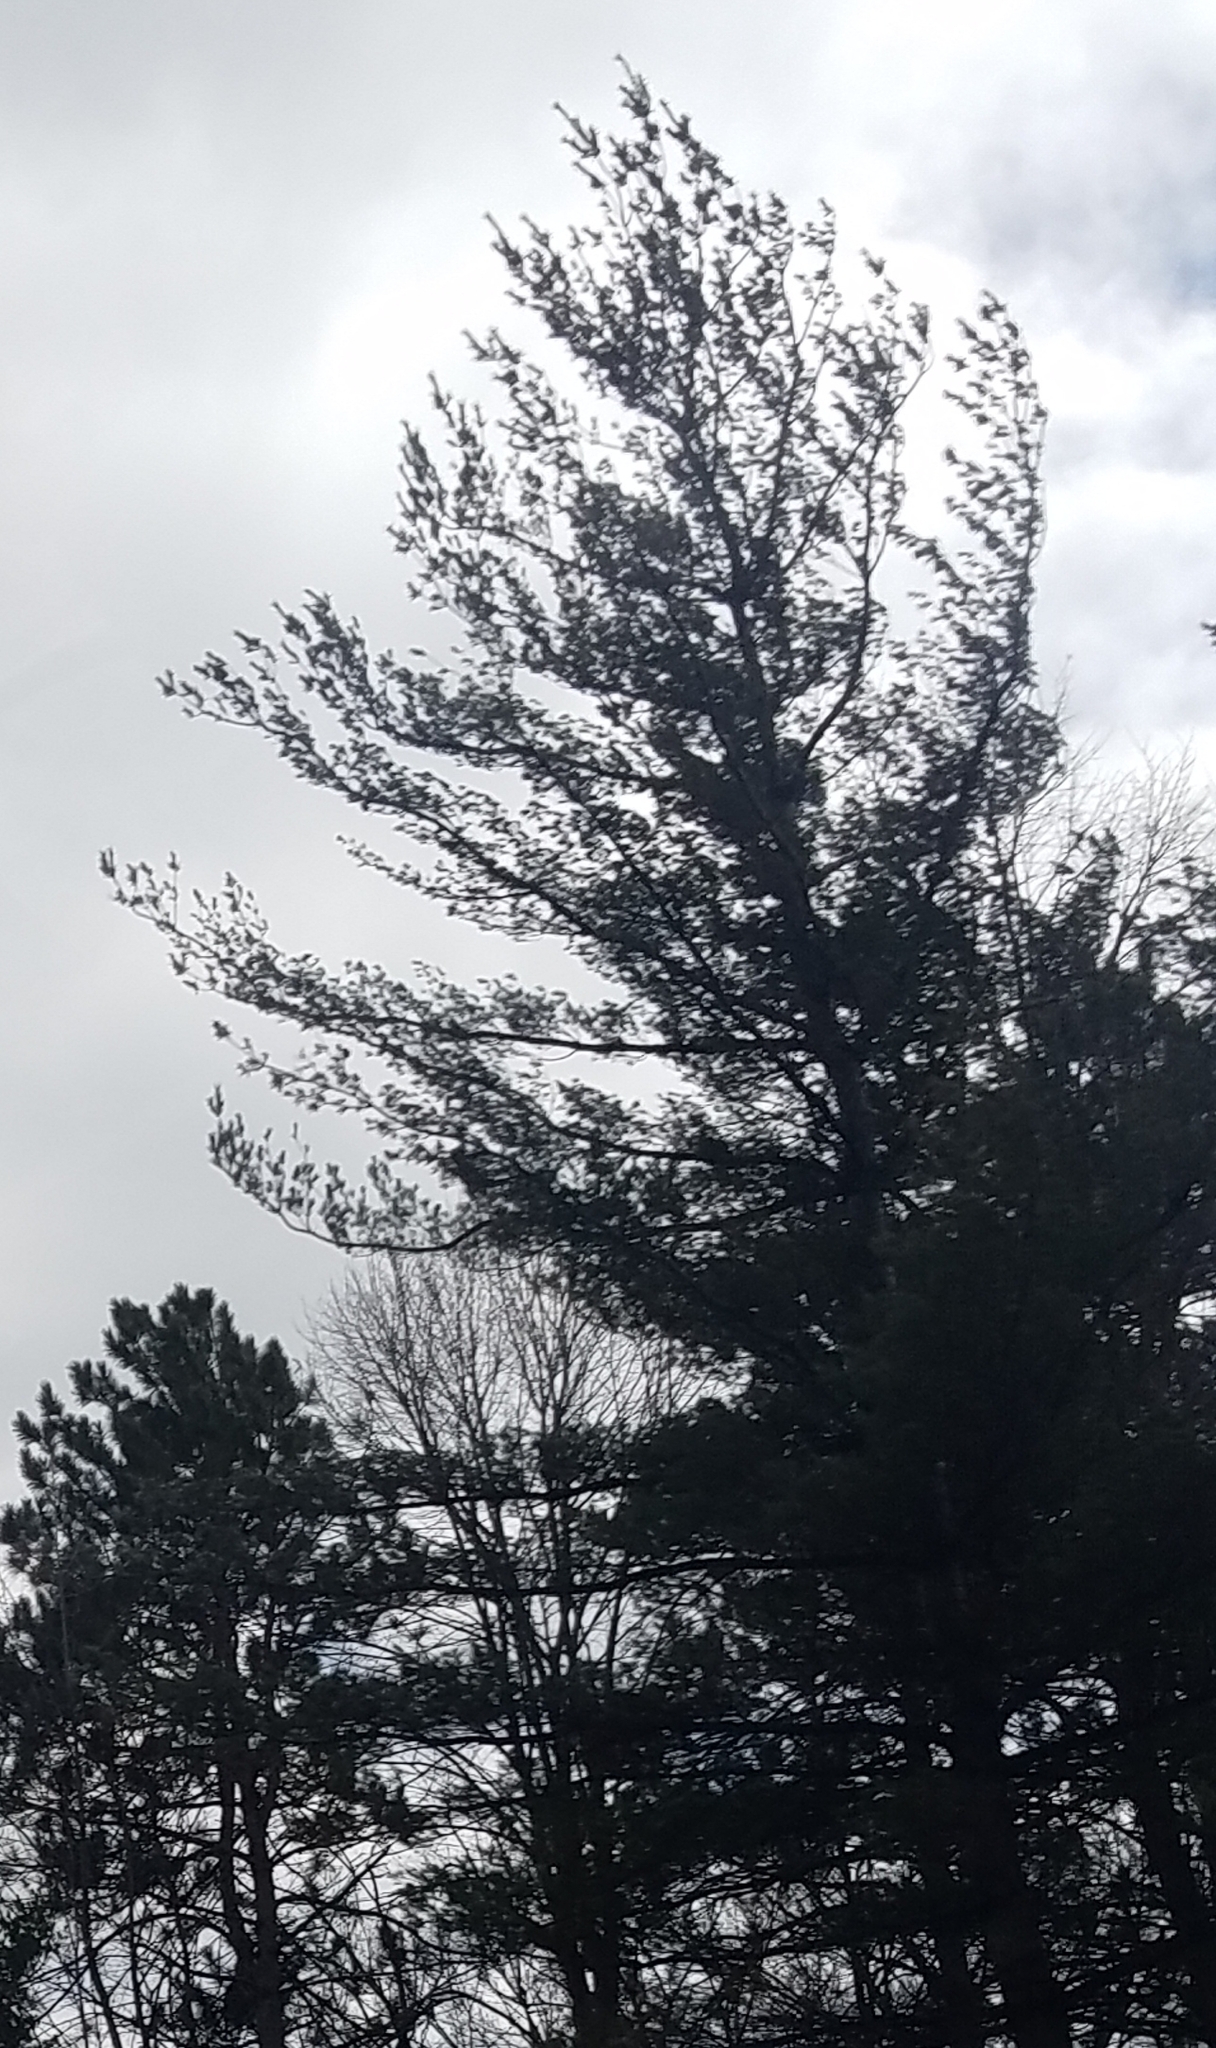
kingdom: Plantae
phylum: Tracheophyta
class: Pinopsida
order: Pinales
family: Pinaceae
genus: Pinus
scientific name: Pinus strobus
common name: Weymouth pine
